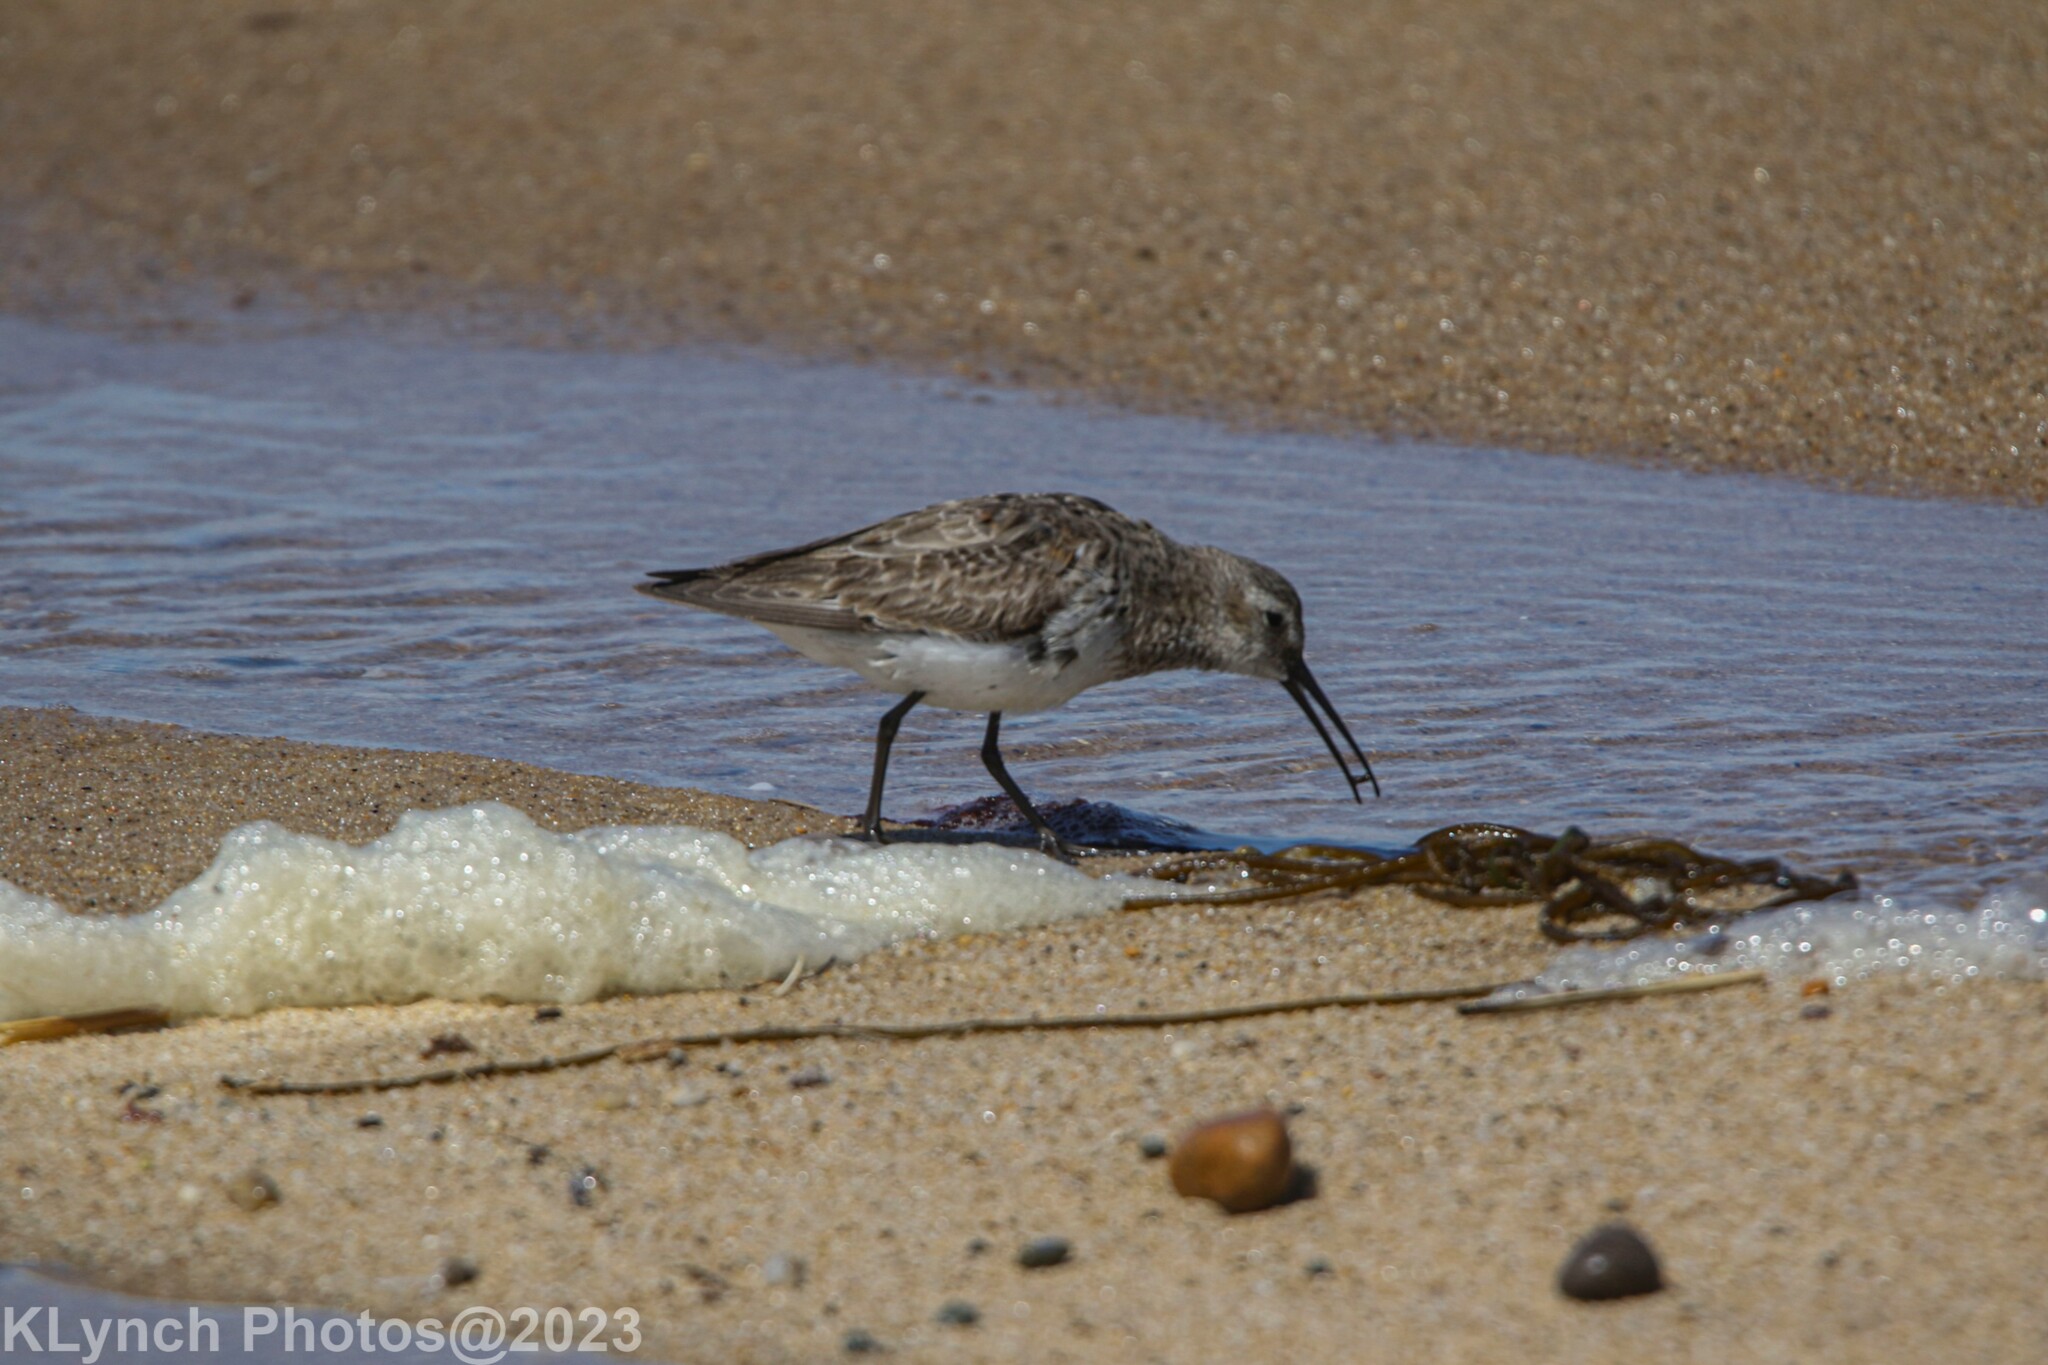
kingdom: Animalia
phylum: Chordata
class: Aves
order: Charadriiformes
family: Scolopacidae
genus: Calidris
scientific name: Calidris alpina
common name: Dunlin
